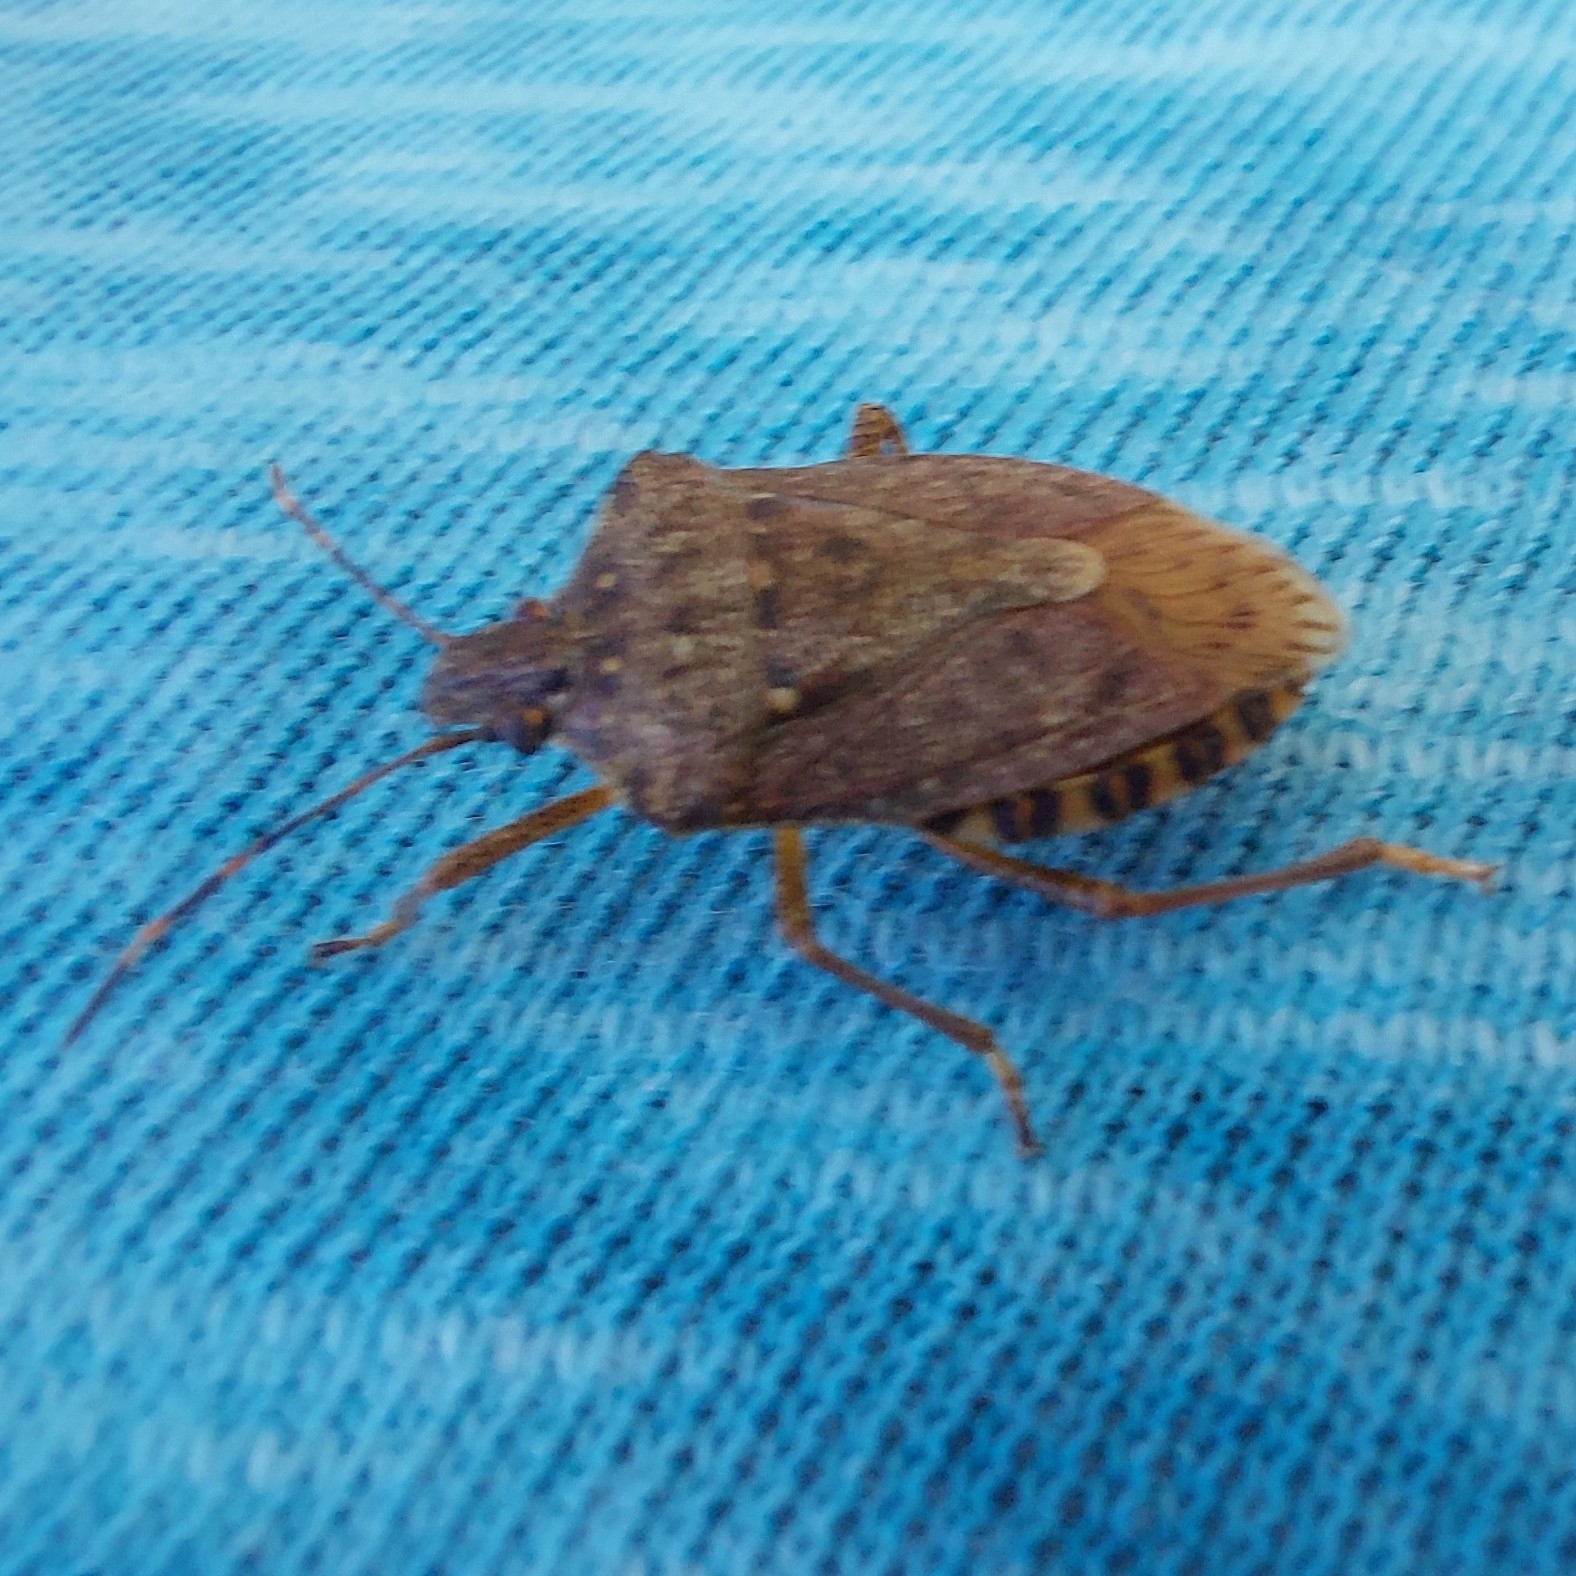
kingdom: Animalia
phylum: Arthropoda
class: Insecta
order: Hemiptera
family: Pentatomidae
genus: Halyomorpha
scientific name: Halyomorpha halys
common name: Brown marmorated stink bug
